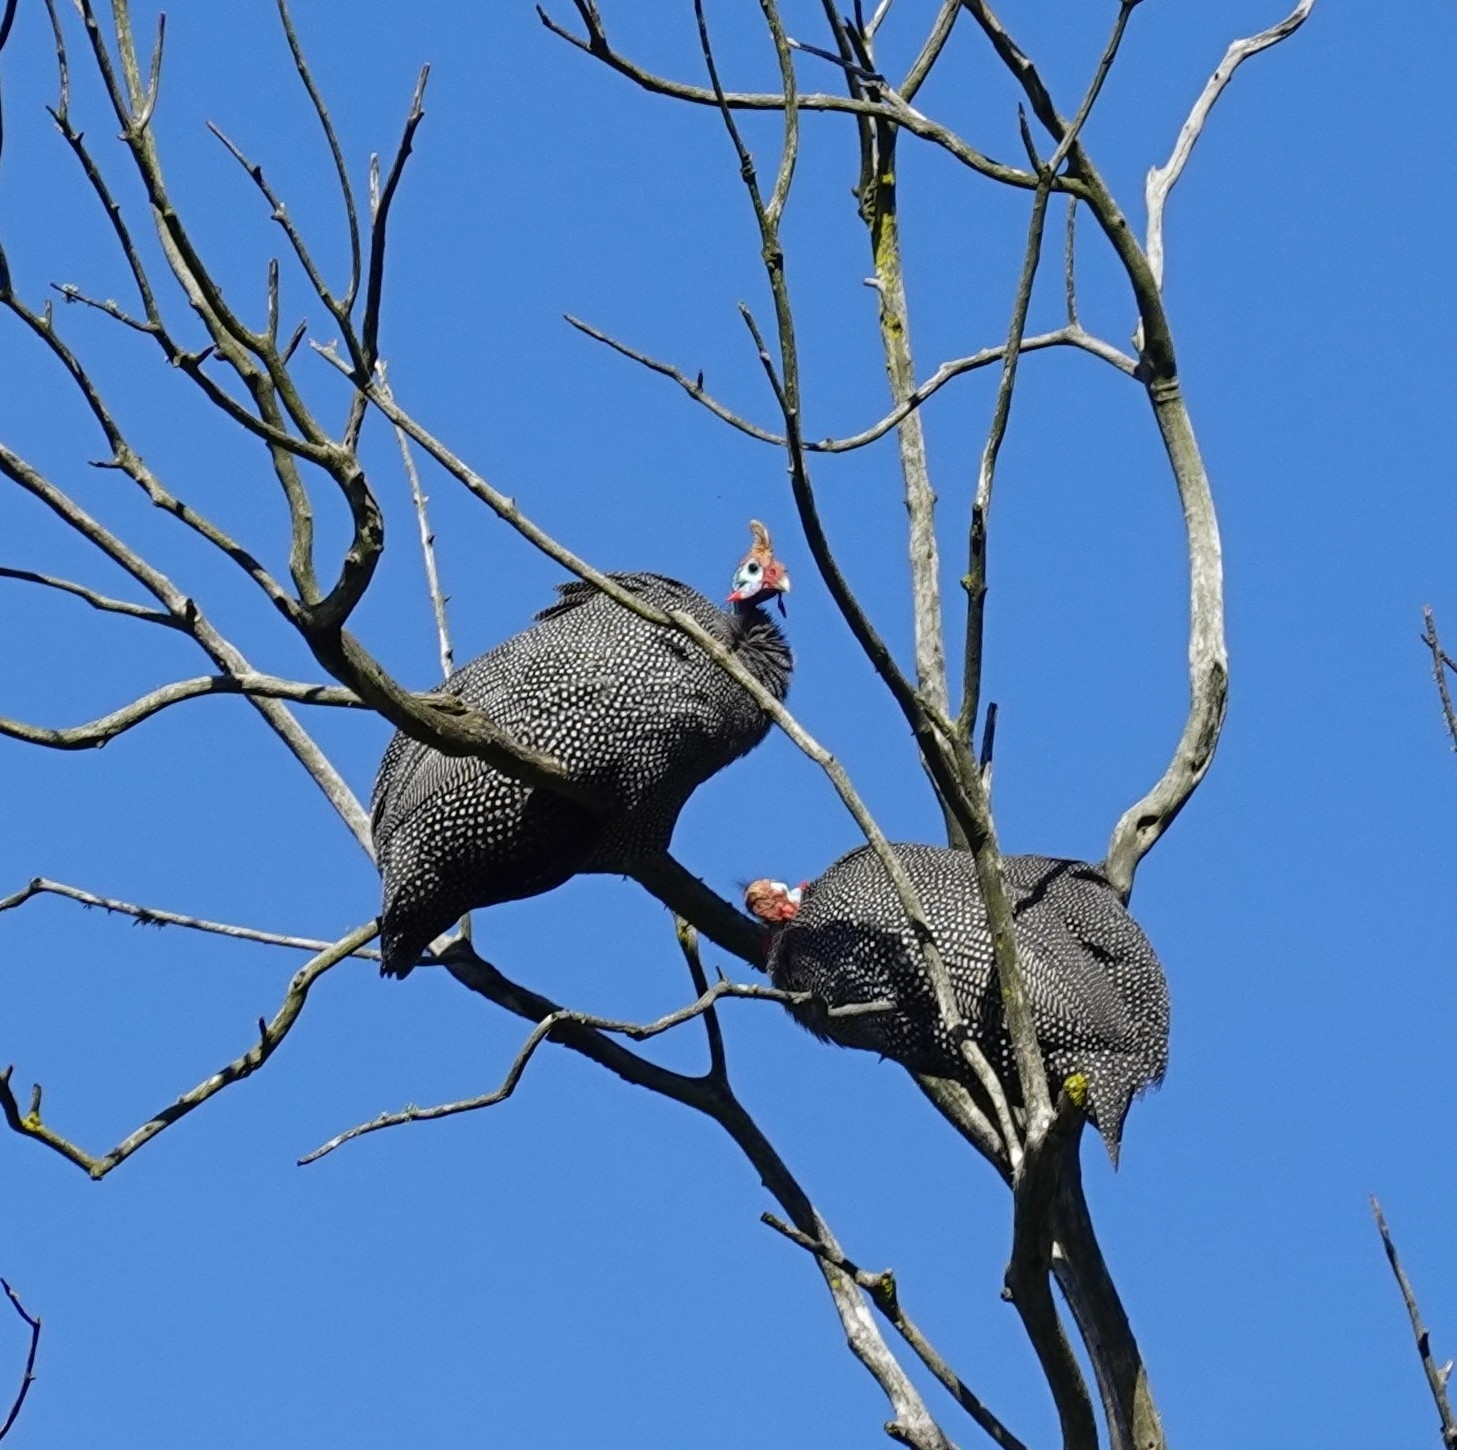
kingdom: Animalia
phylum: Chordata
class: Aves
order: Galliformes
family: Numididae
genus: Numida
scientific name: Numida meleagris
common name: Helmeted guineafowl
